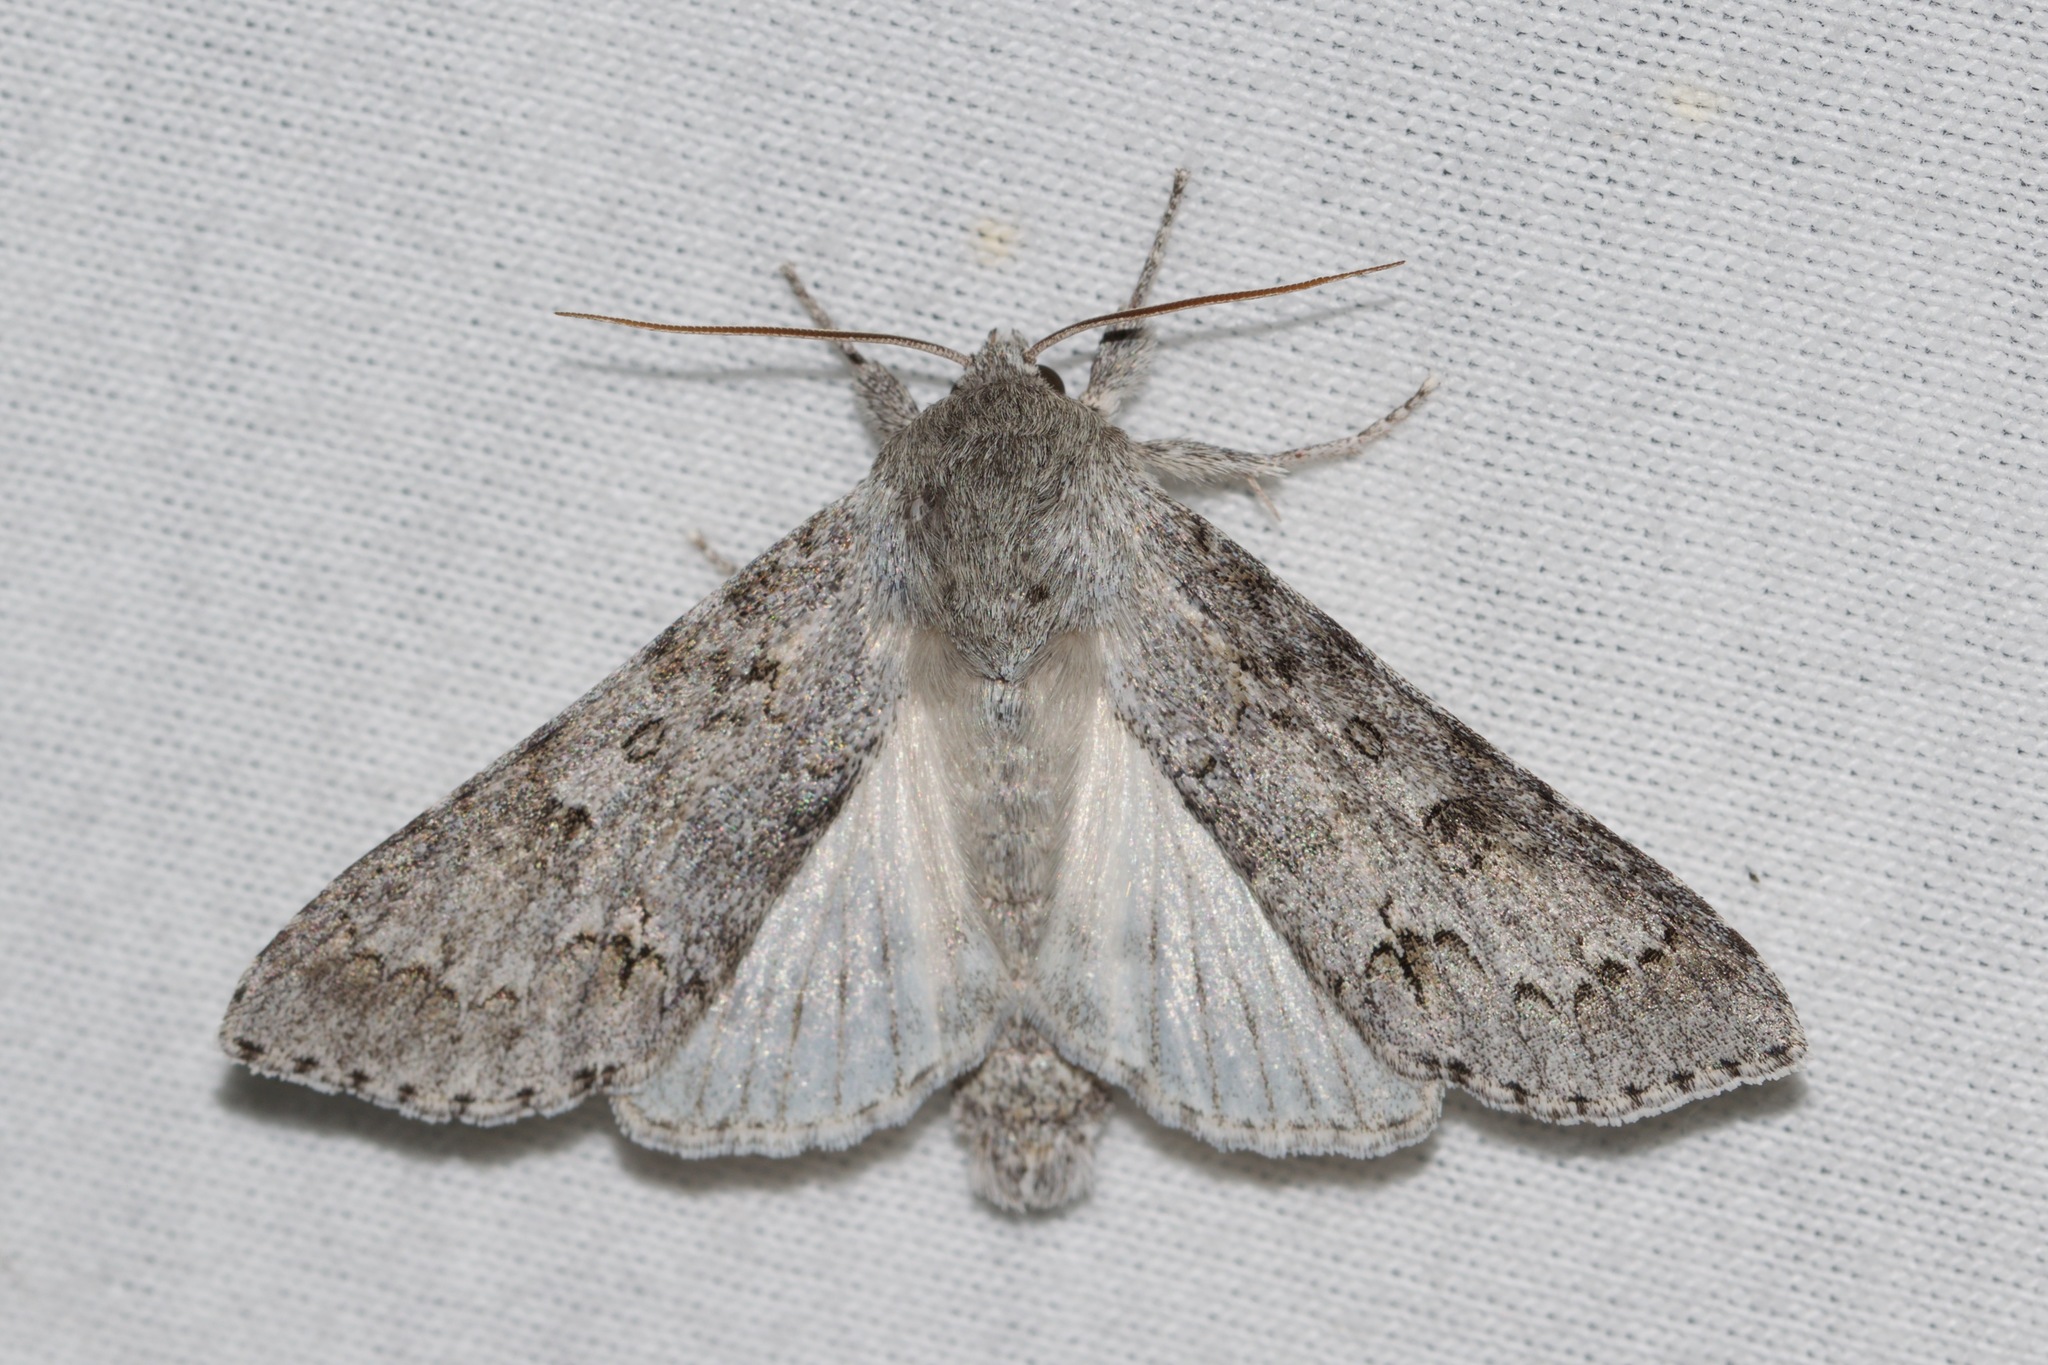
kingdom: Animalia
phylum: Arthropoda
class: Insecta
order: Lepidoptera
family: Noctuidae
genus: Acronicta
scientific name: Acronicta insita
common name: Large gray dagger
